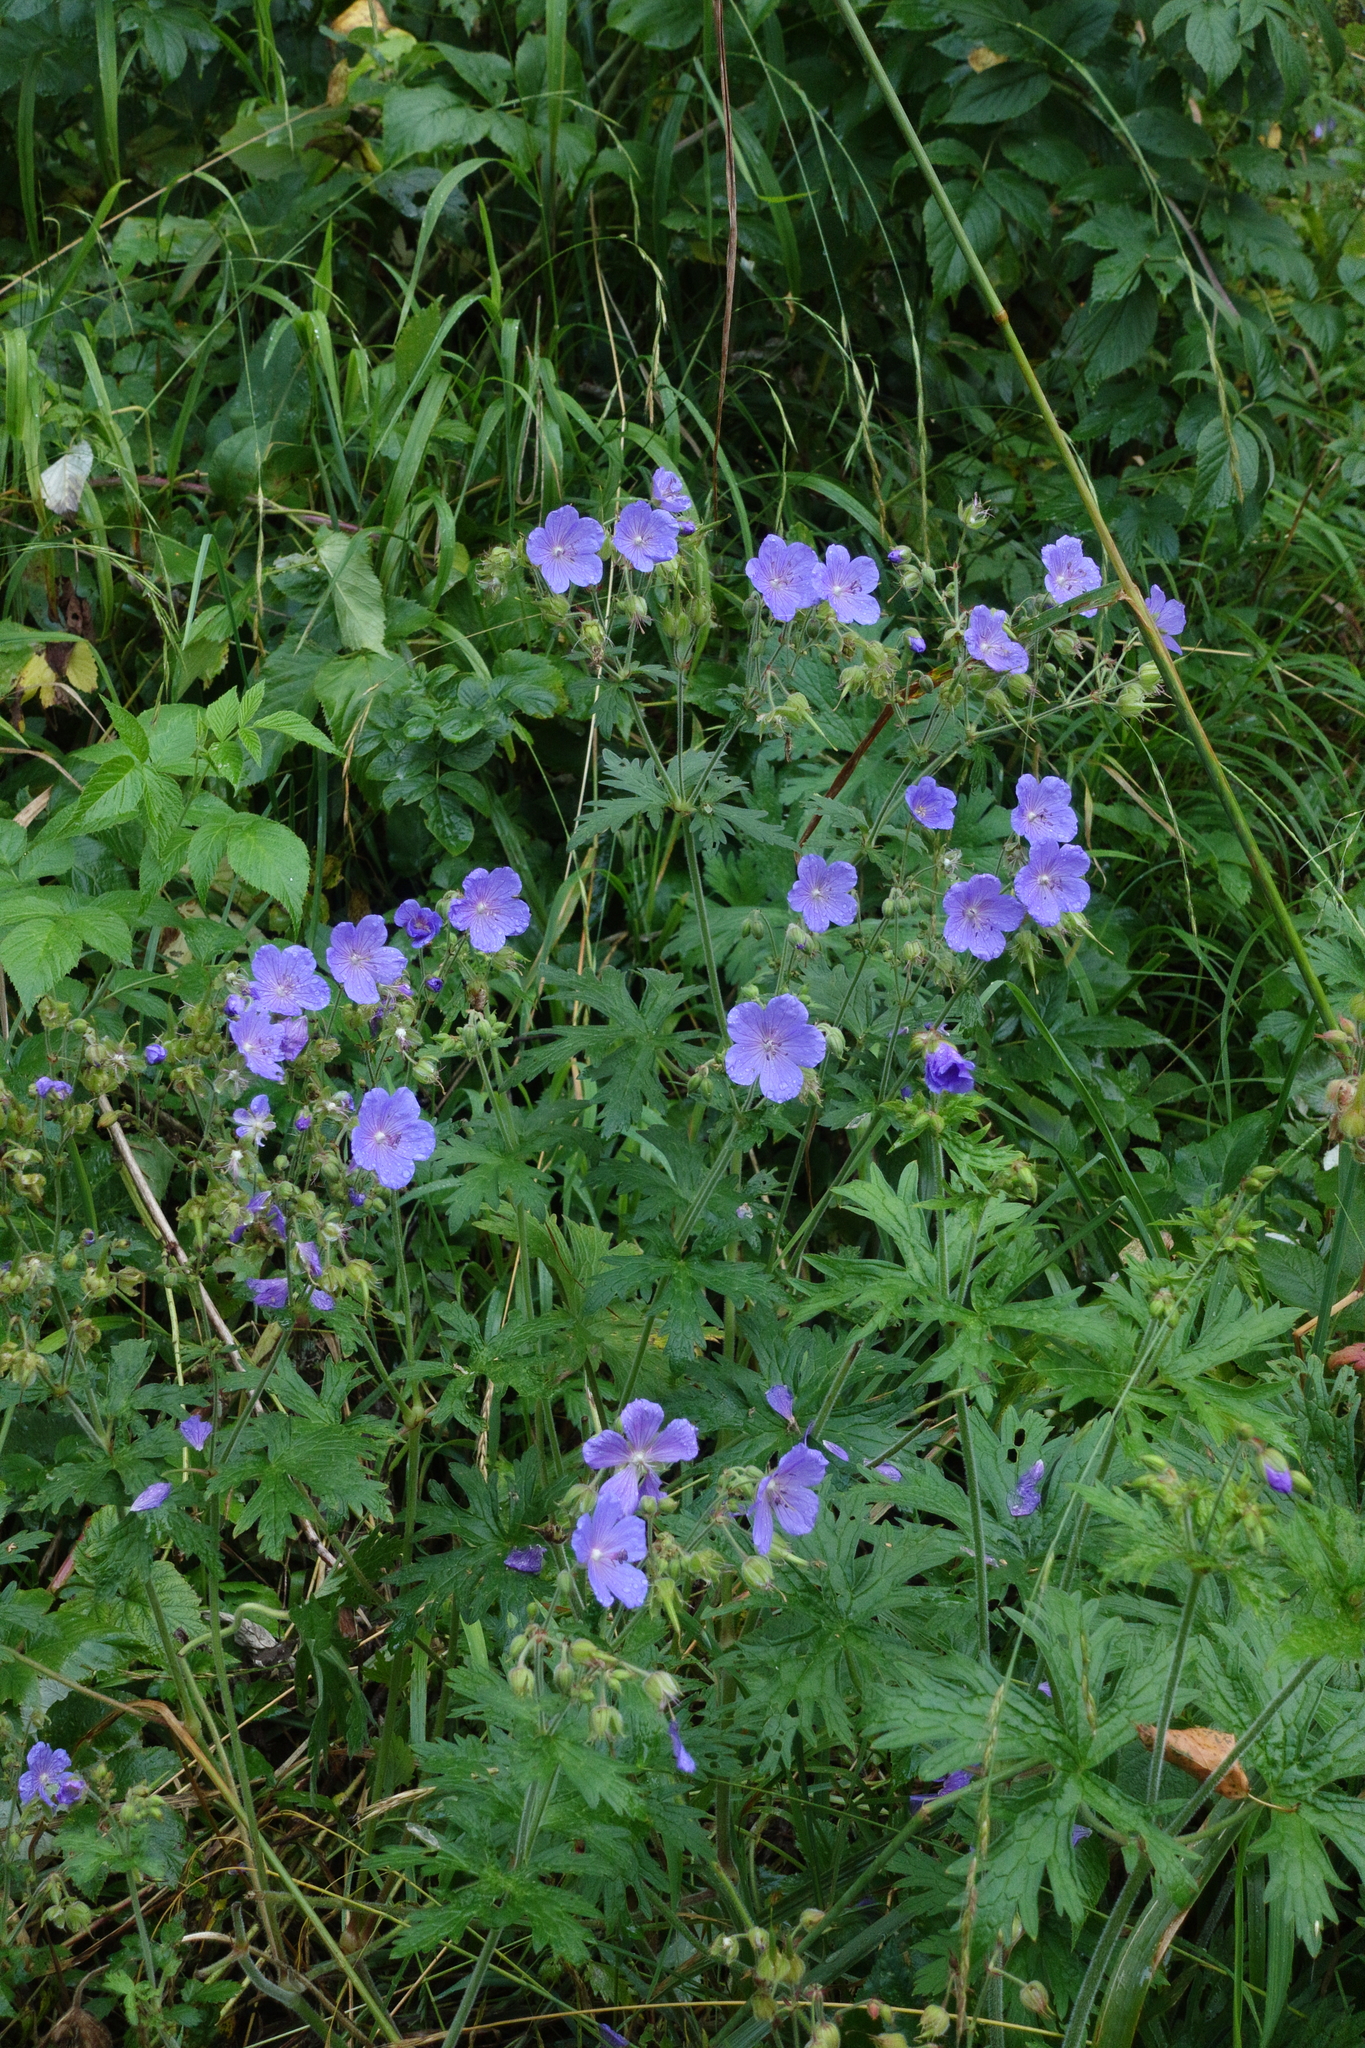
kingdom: Plantae
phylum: Tracheophyta
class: Magnoliopsida
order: Geraniales
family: Geraniaceae
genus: Geranium
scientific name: Geranium pratense
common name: Meadow crane's-bill
